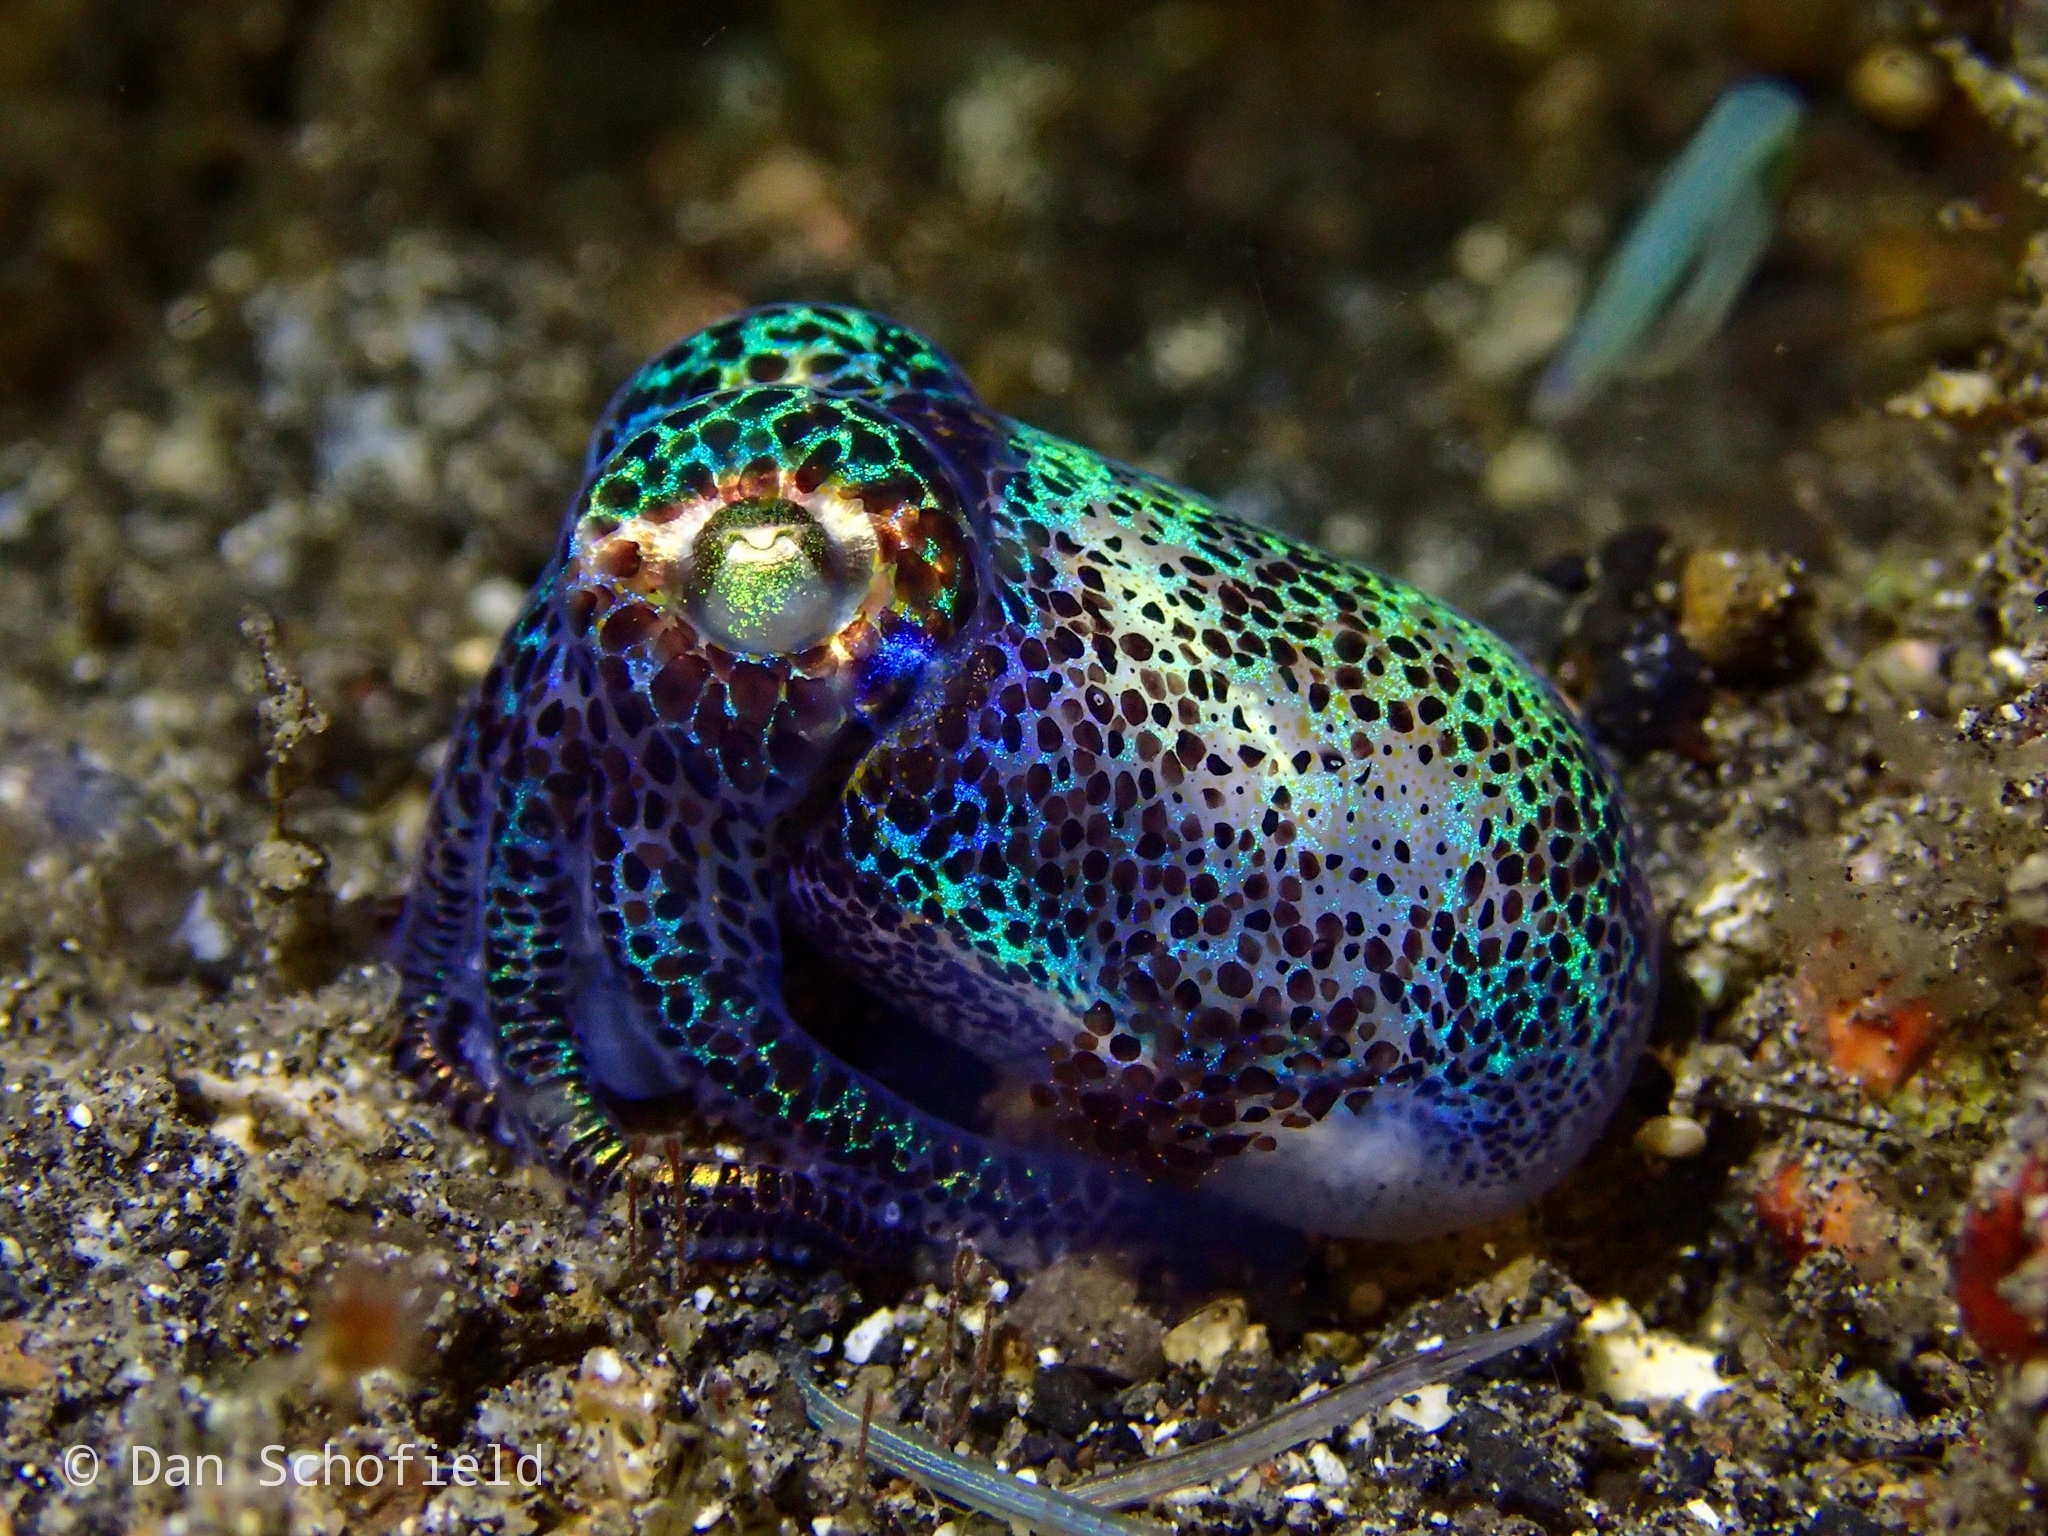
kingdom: Animalia
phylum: Mollusca
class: Cephalopoda
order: Sepiida
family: Sepiolidae
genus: Euprymna
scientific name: Euprymna berryi
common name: Humming-bird bobtail squid
